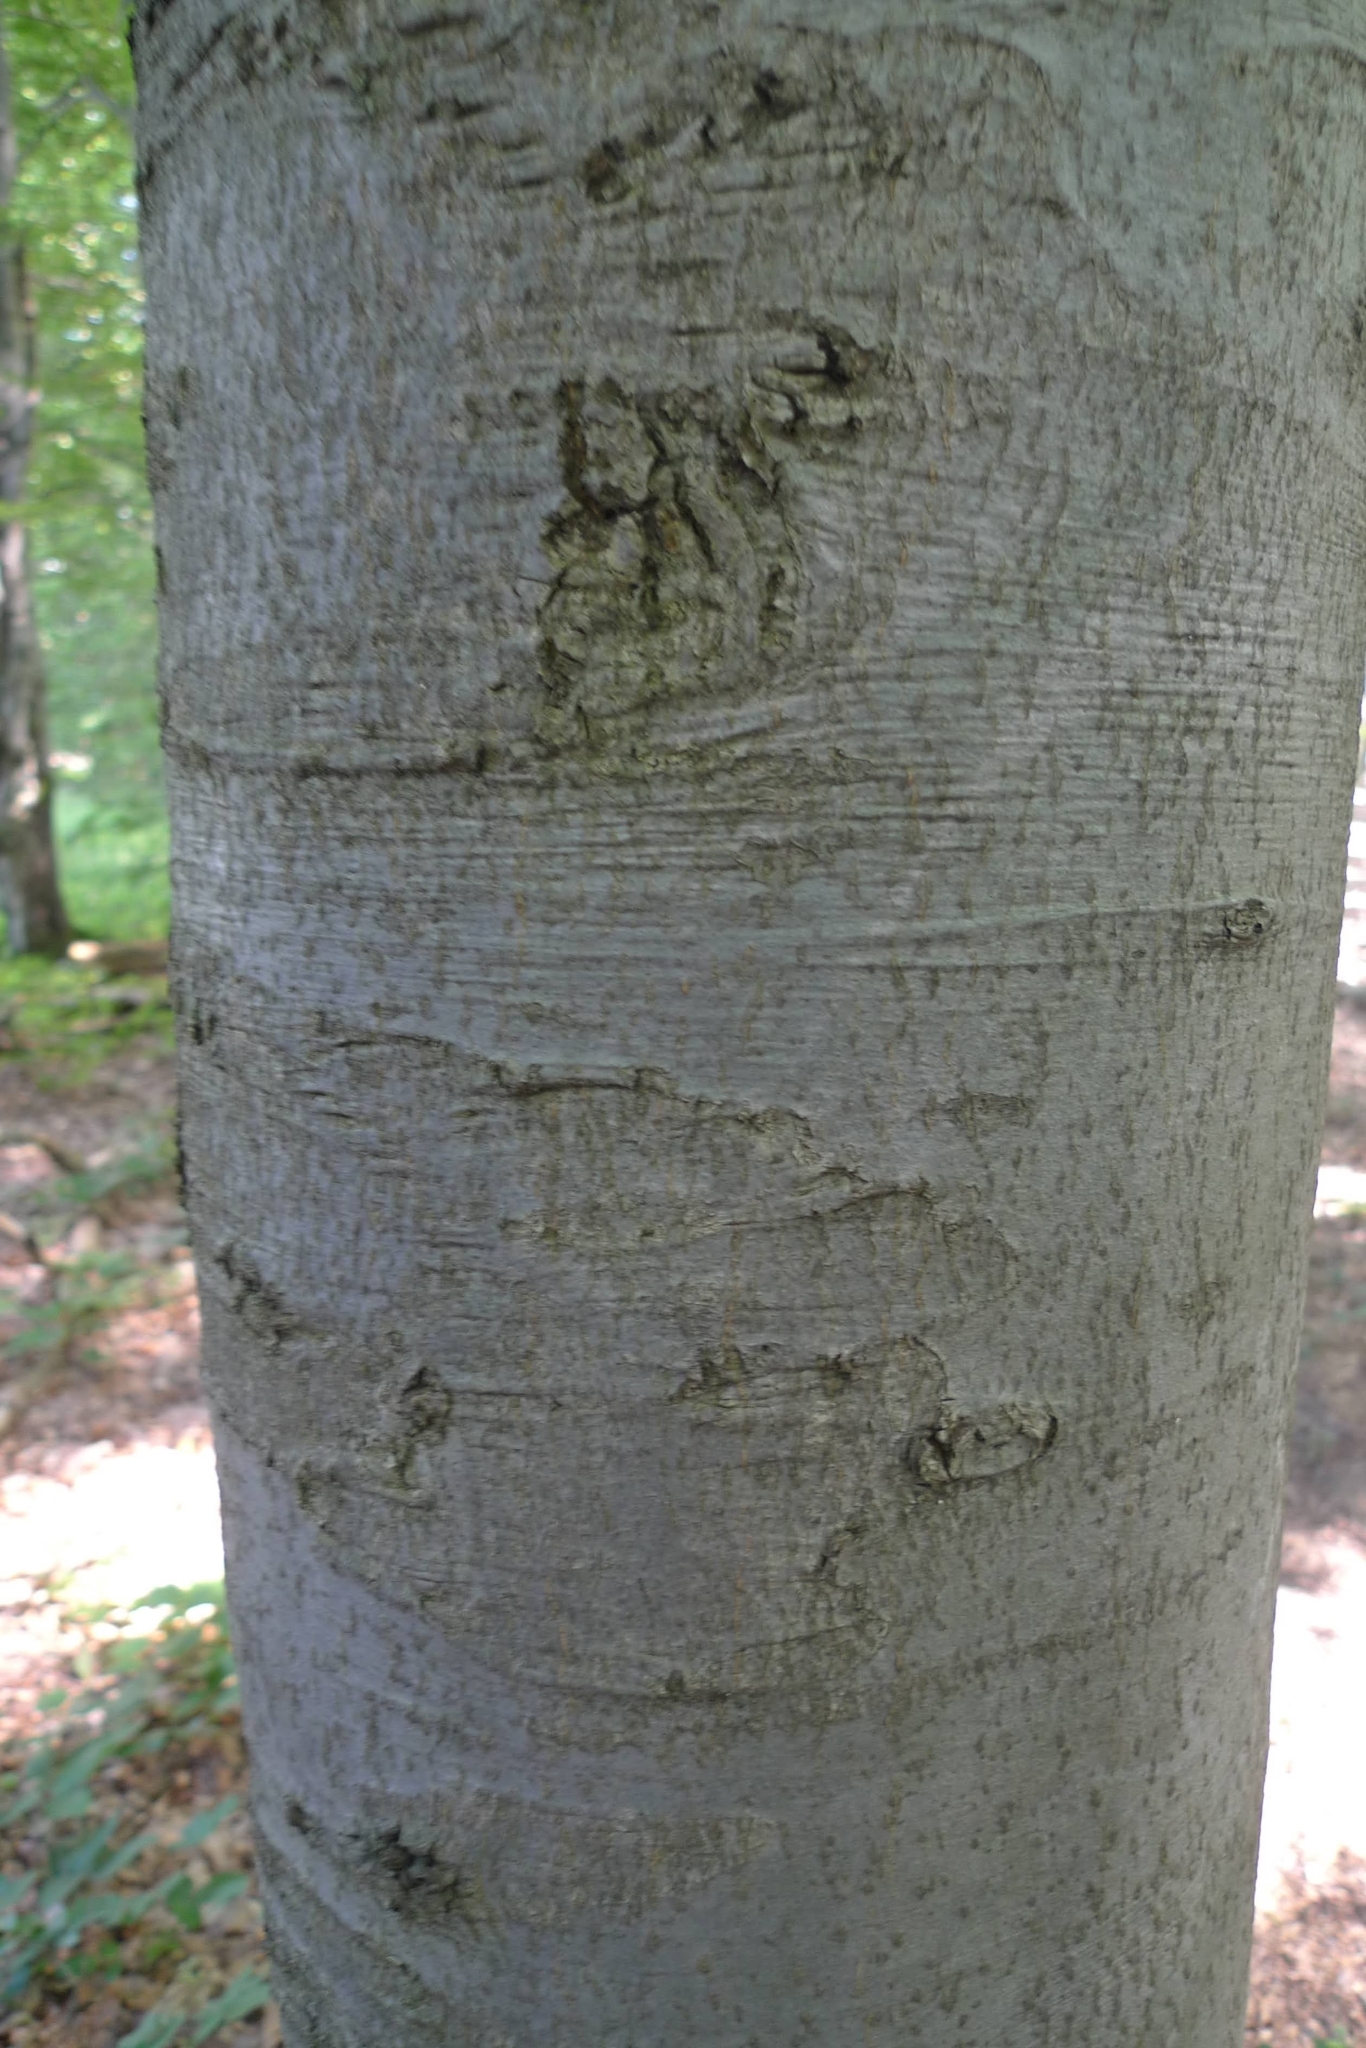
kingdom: Plantae
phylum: Tracheophyta
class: Magnoliopsida
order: Fagales
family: Fagaceae
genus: Fagus
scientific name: Fagus sylvatica
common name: Beech
